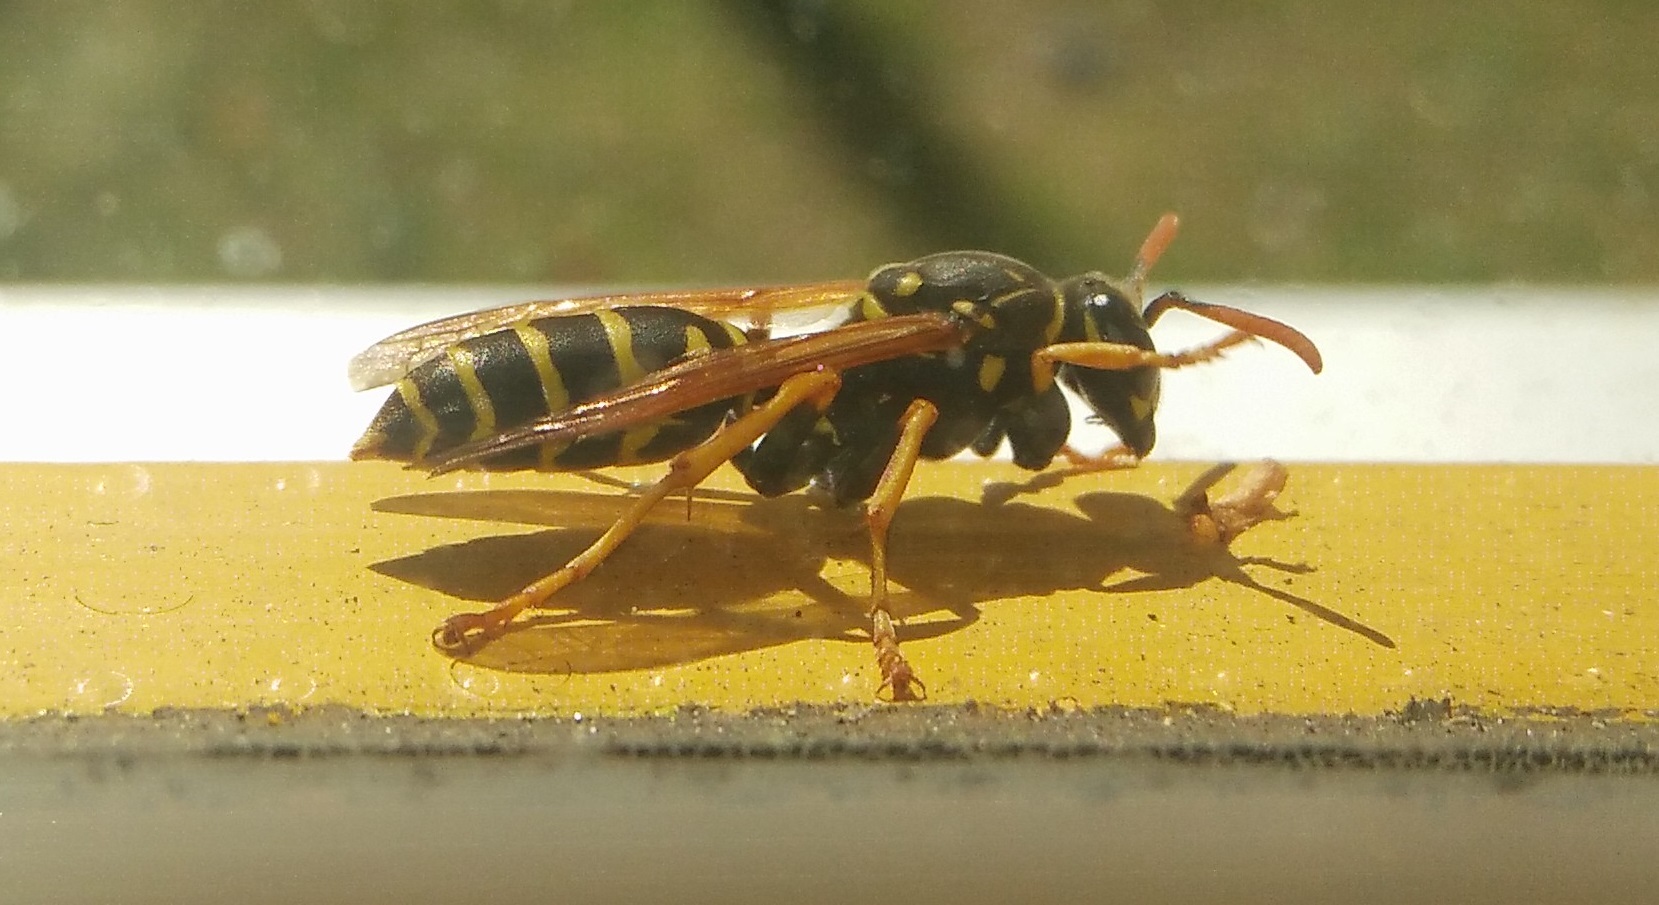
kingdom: Animalia
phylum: Arthropoda
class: Insecta
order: Hymenoptera
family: Eumenidae
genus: Polistes
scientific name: Polistes dominula
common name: Paper wasp
